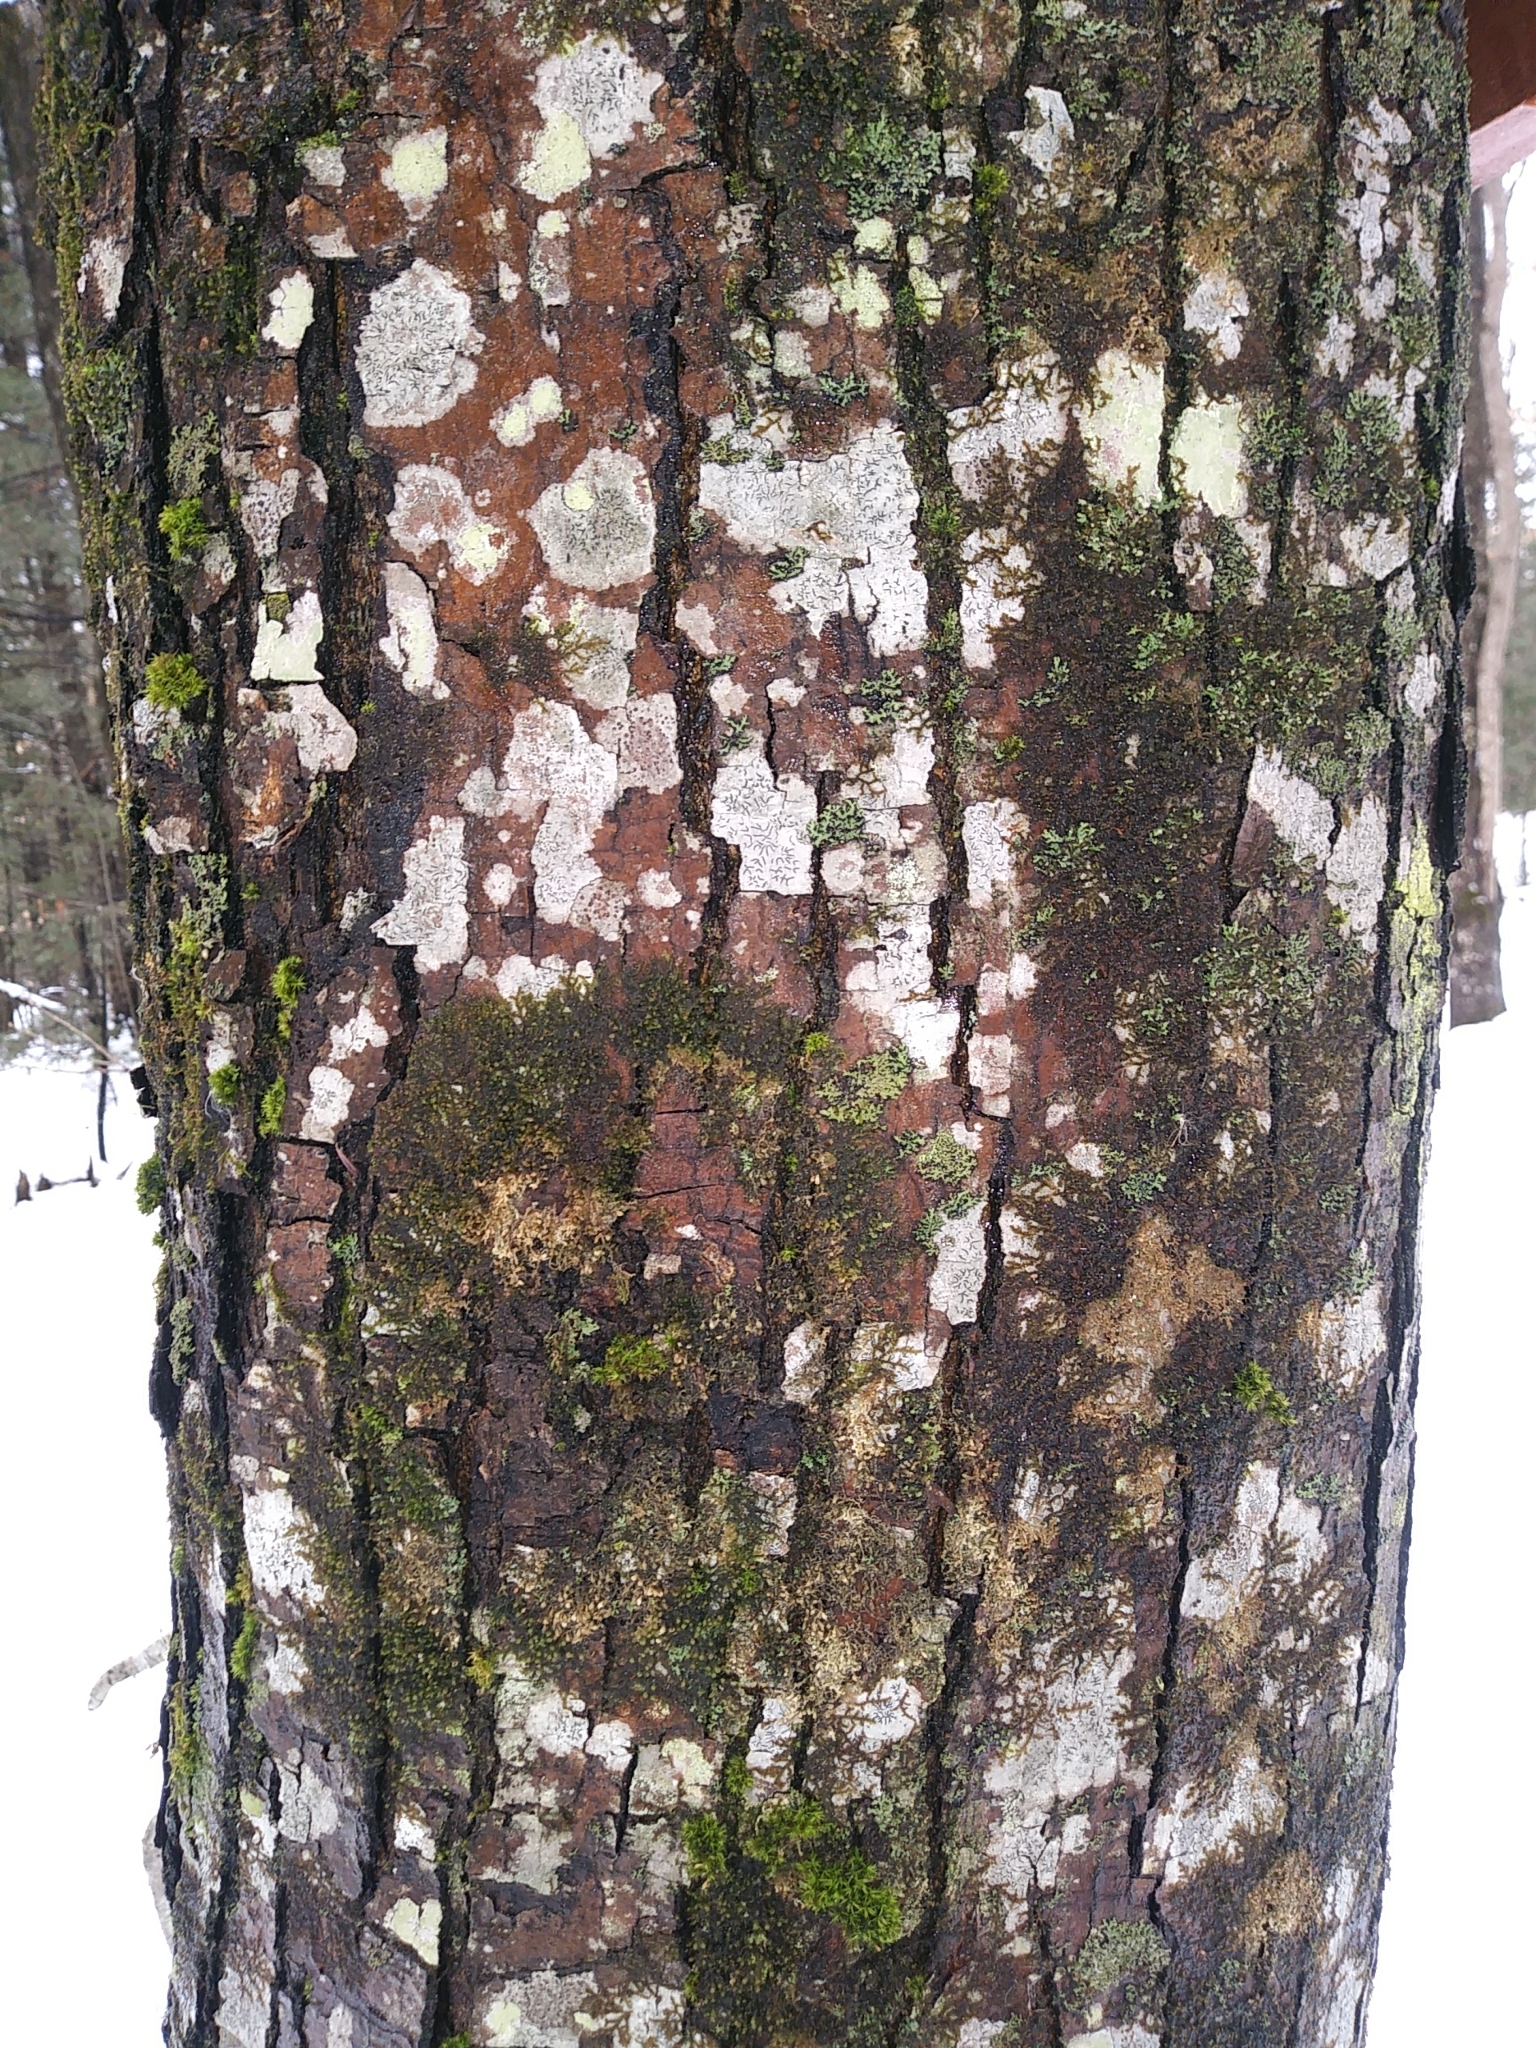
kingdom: Plantae
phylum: Tracheophyta
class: Magnoliopsida
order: Sapindales
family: Sapindaceae
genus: Acer
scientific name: Acer rubrum
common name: Red maple
